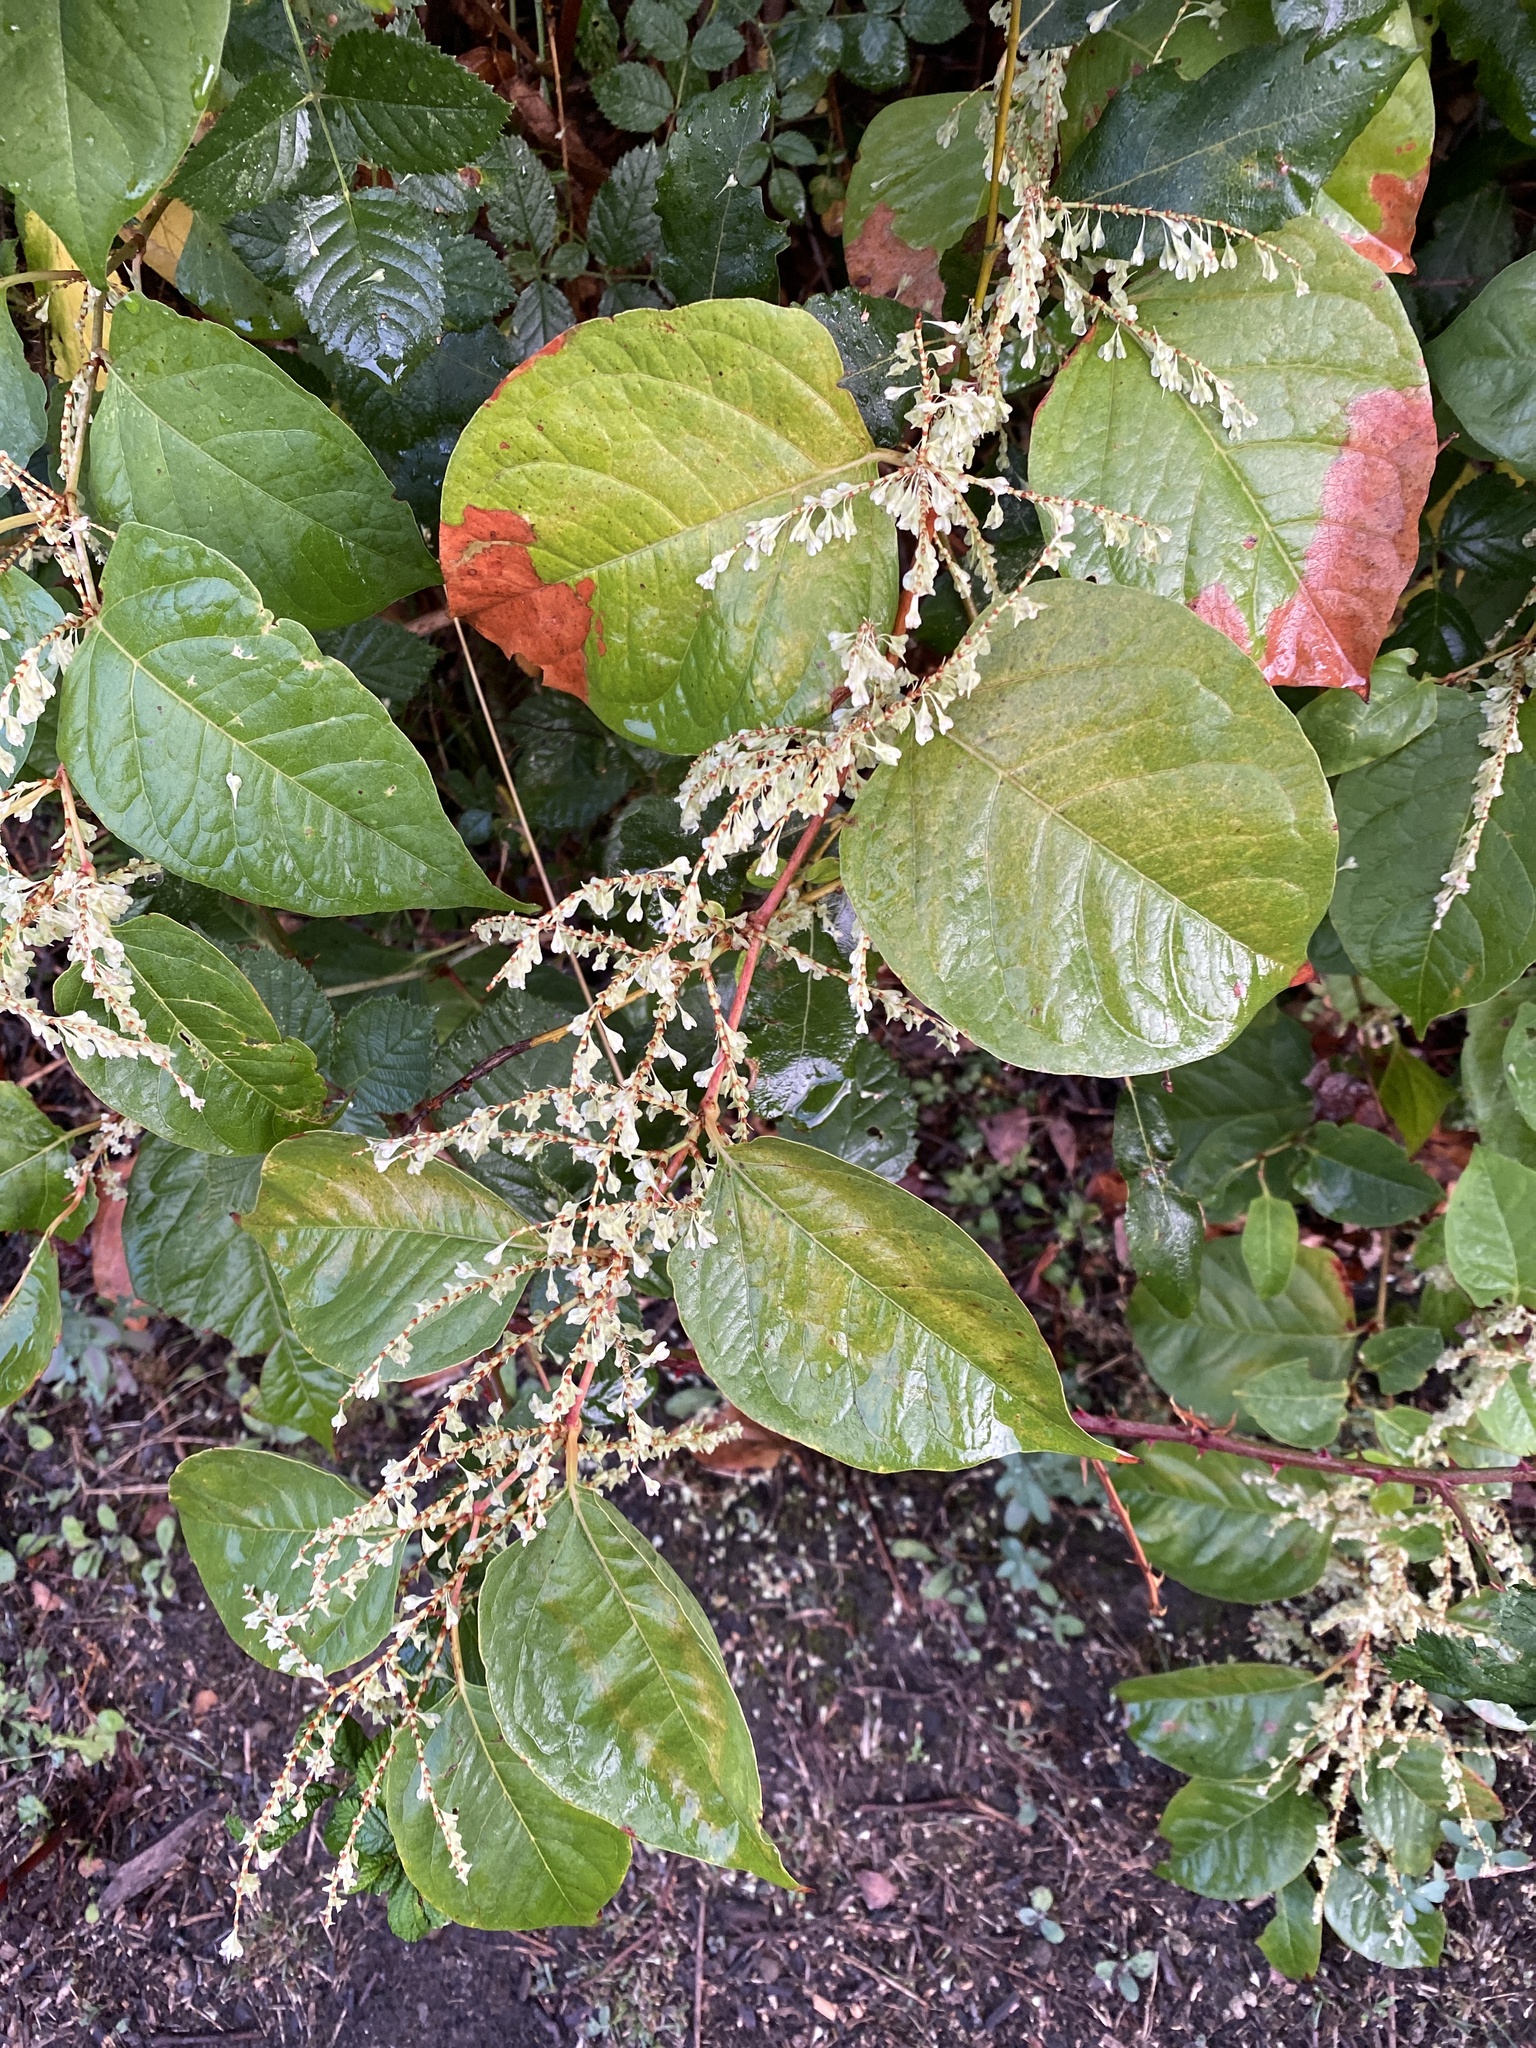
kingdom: Plantae
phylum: Tracheophyta
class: Magnoliopsida
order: Caryophyllales
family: Polygonaceae
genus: Reynoutria
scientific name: Reynoutria japonica
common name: Japanese knotweed
